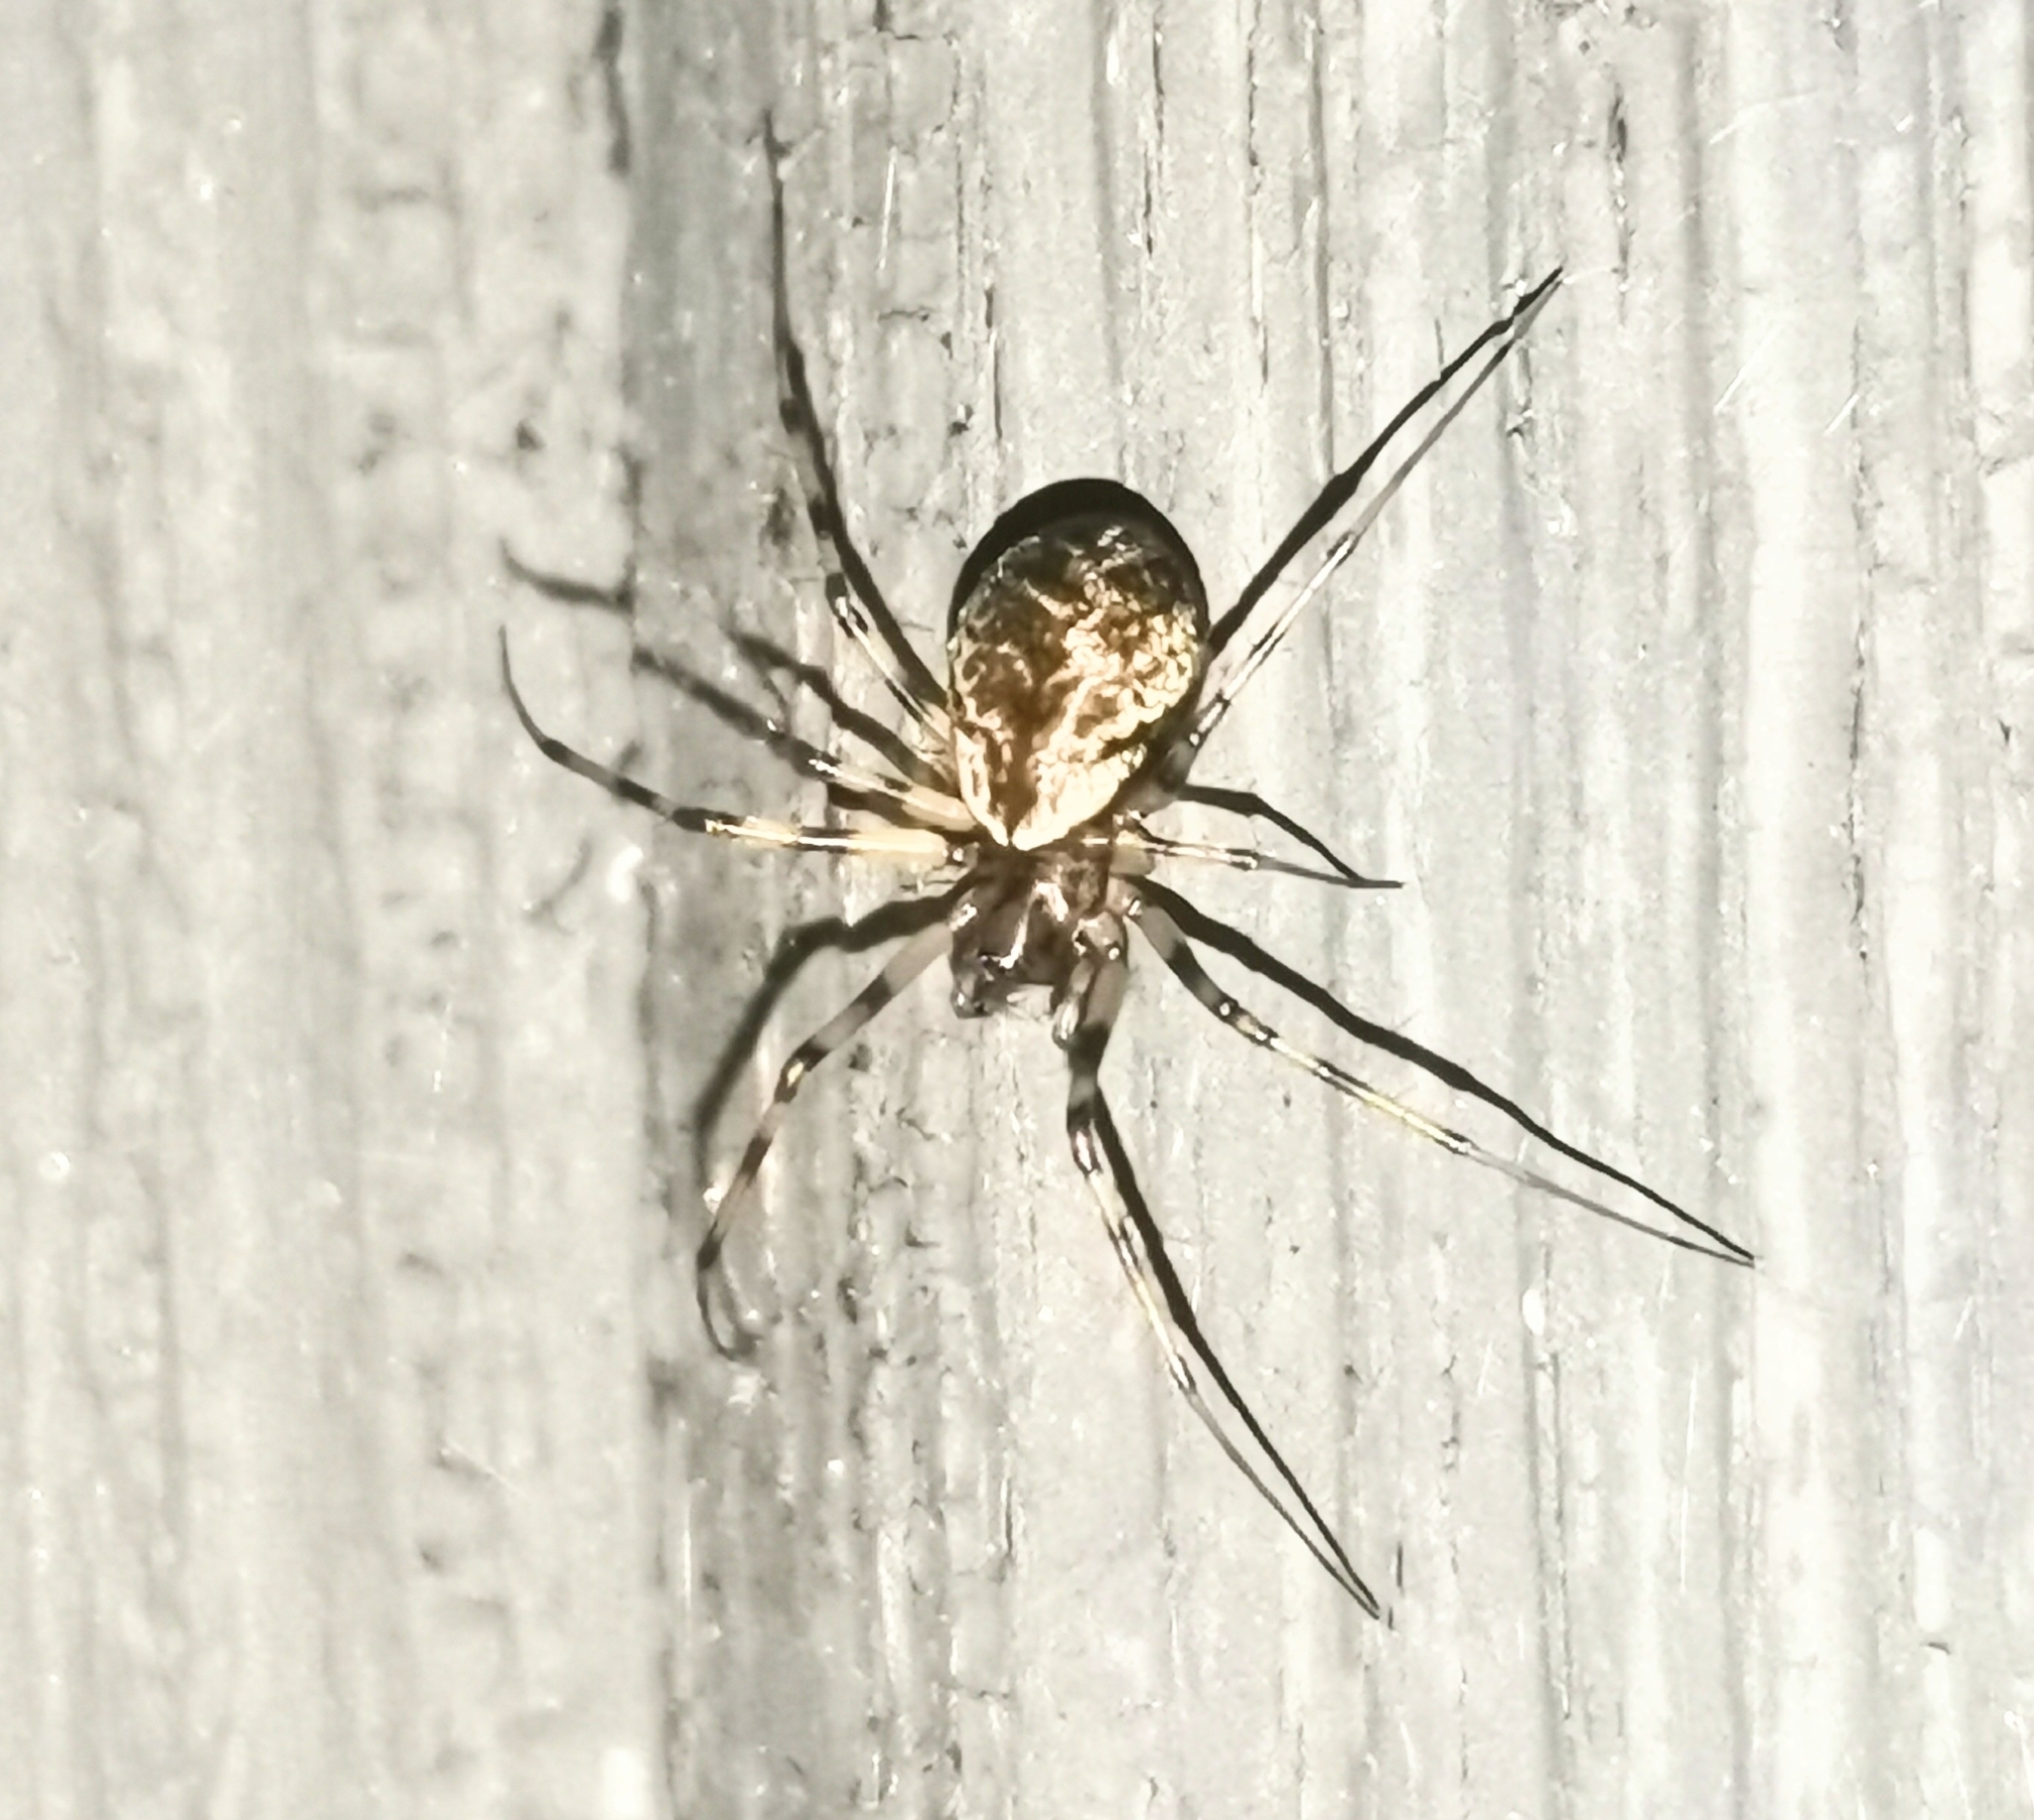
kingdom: Animalia
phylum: Arthropoda
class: Arachnida
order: Araneae
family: Linyphiidae
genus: Drapetisca
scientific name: Drapetisca socialis
